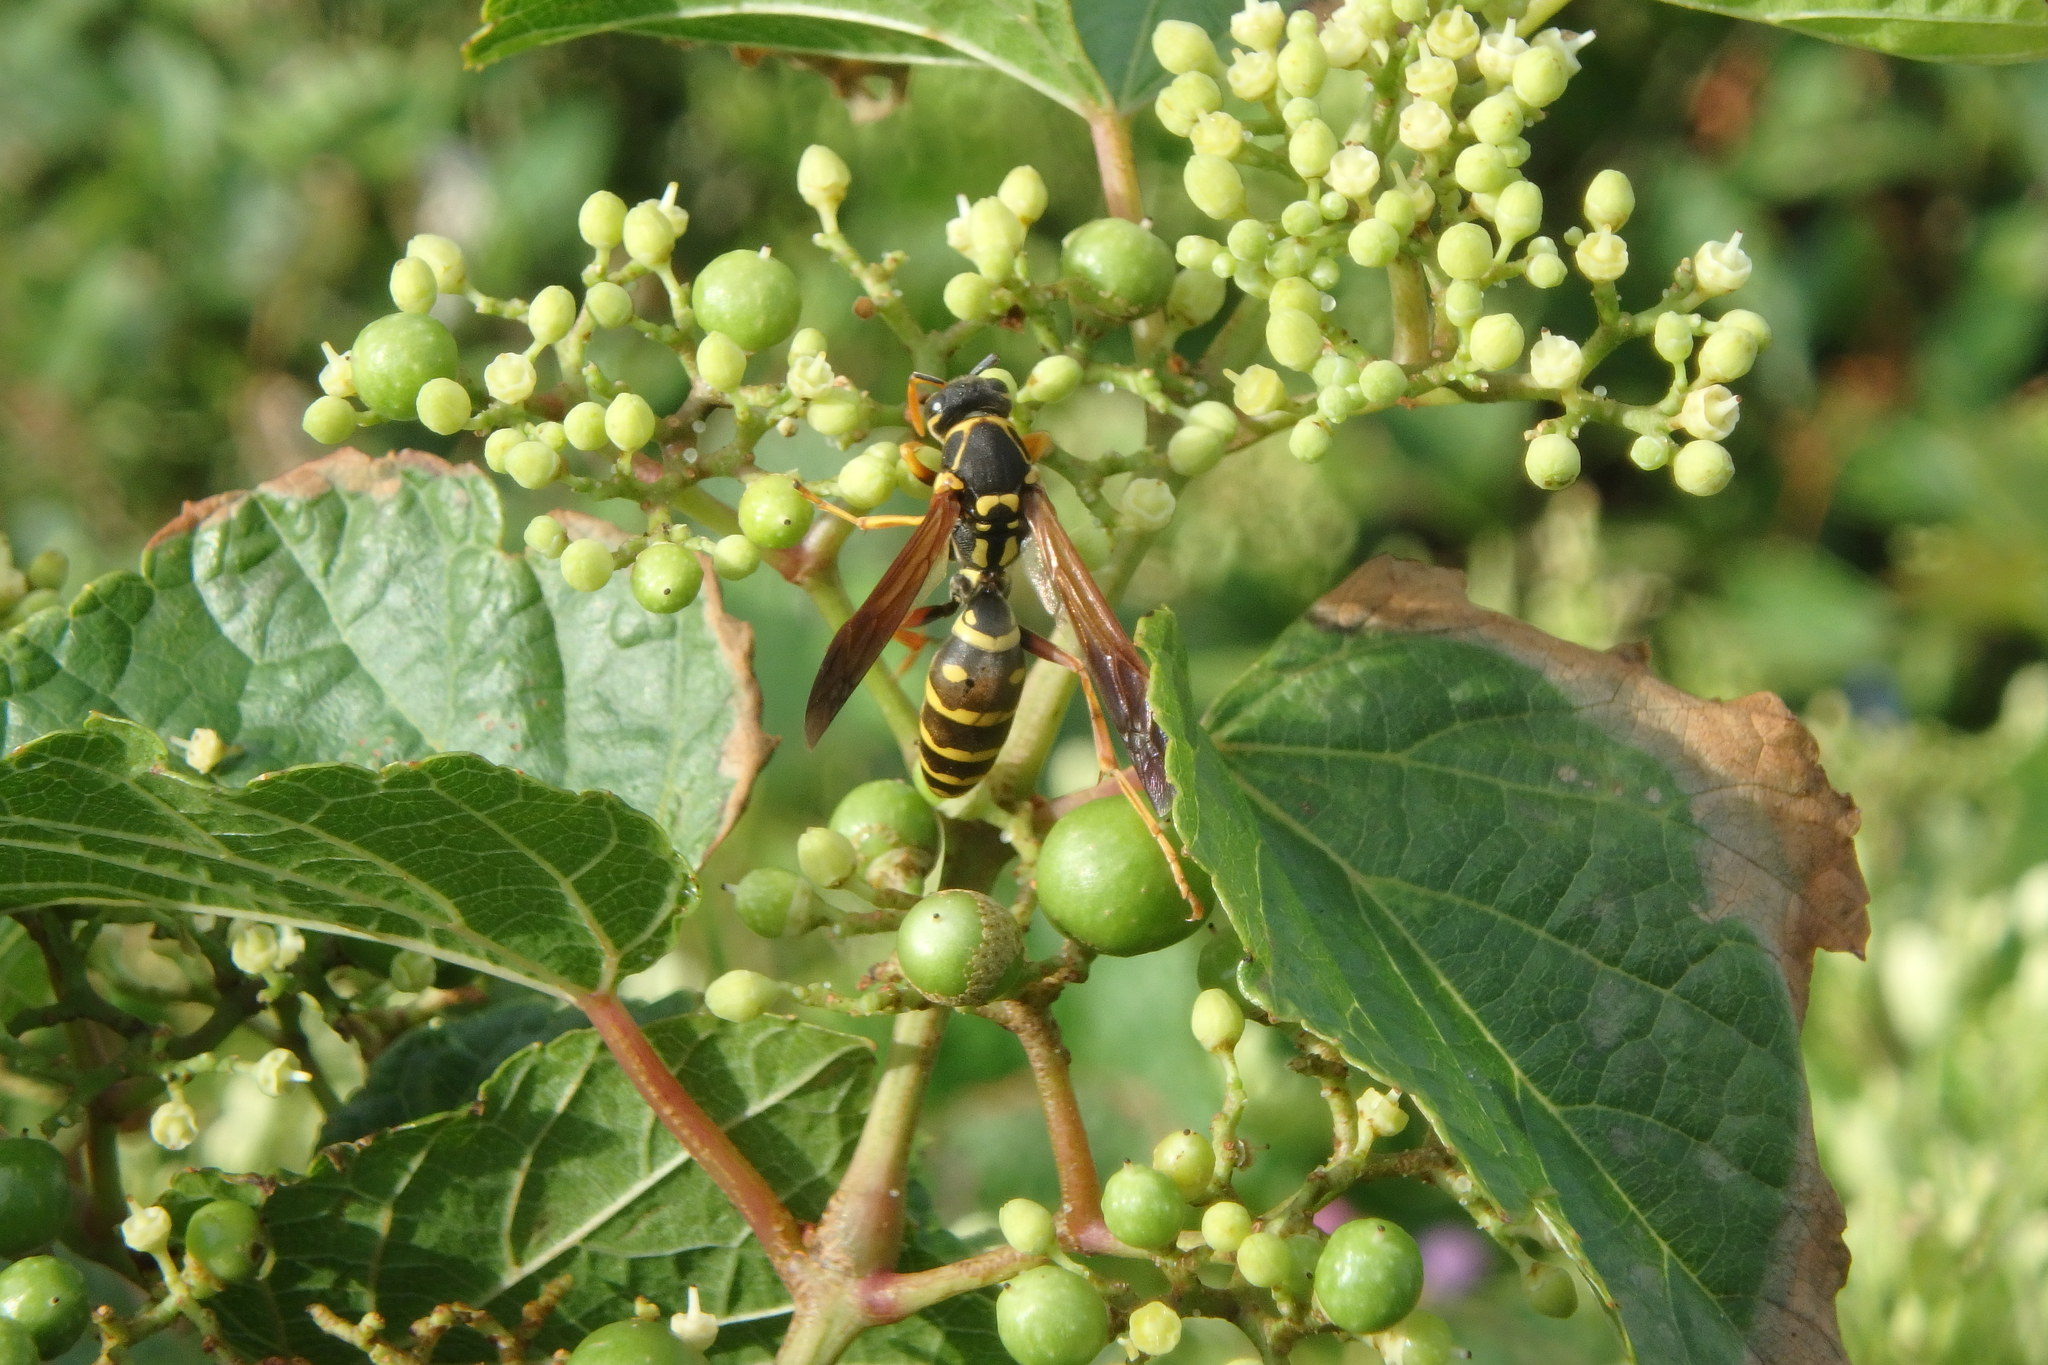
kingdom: Animalia
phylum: Arthropoda
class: Insecta
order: Hymenoptera
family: Eumenidae
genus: Polistes
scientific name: Polistes chinensis
